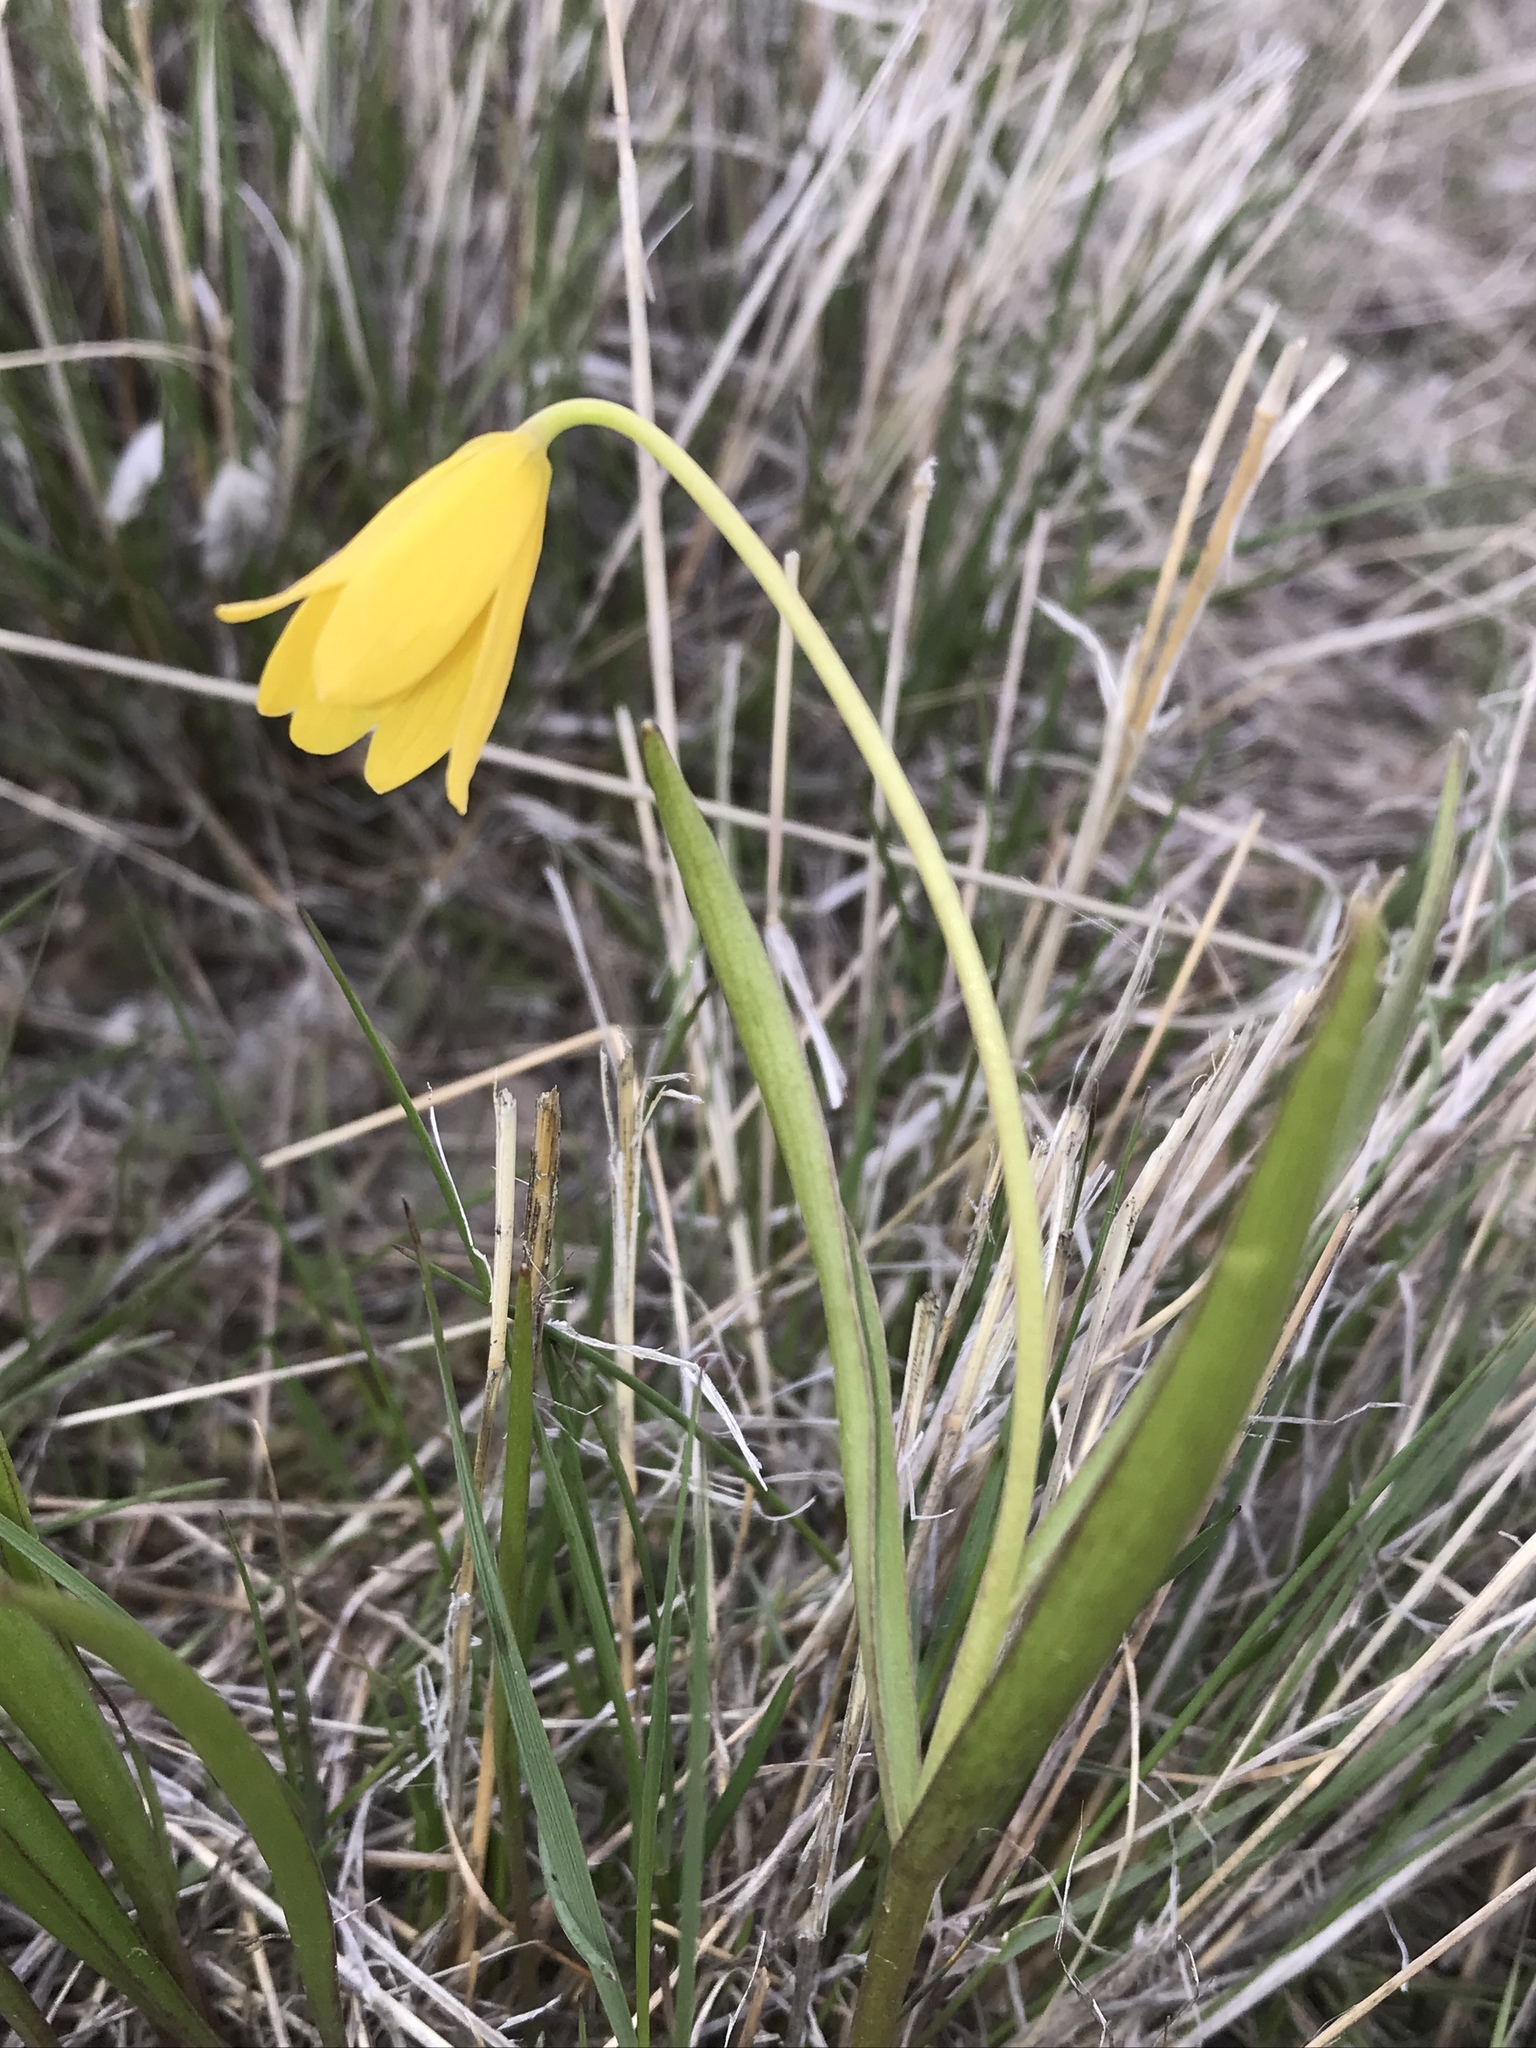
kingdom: Plantae
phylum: Tracheophyta
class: Liliopsida
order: Liliales
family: Liliaceae
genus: Fritillaria
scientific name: Fritillaria pudica
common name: Yellow fritillary
